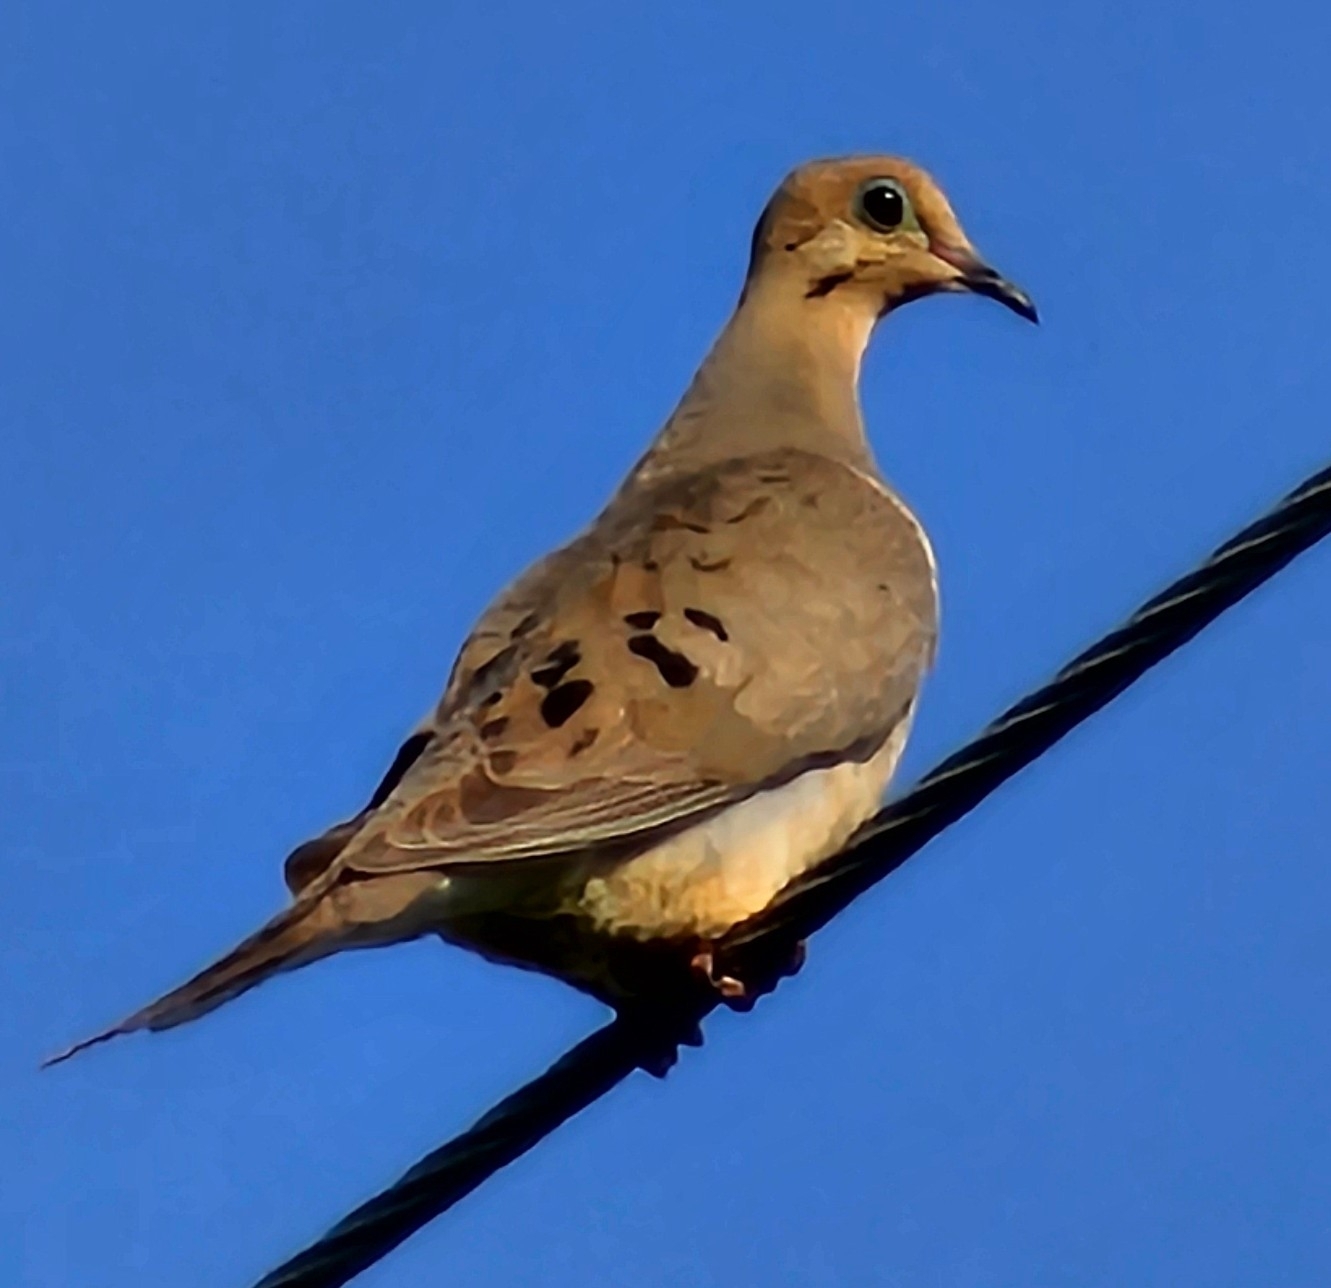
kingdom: Animalia
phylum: Chordata
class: Aves
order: Columbiformes
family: Columbidae
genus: Zenaida
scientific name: Zenaida macroura
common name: Mourning dove
